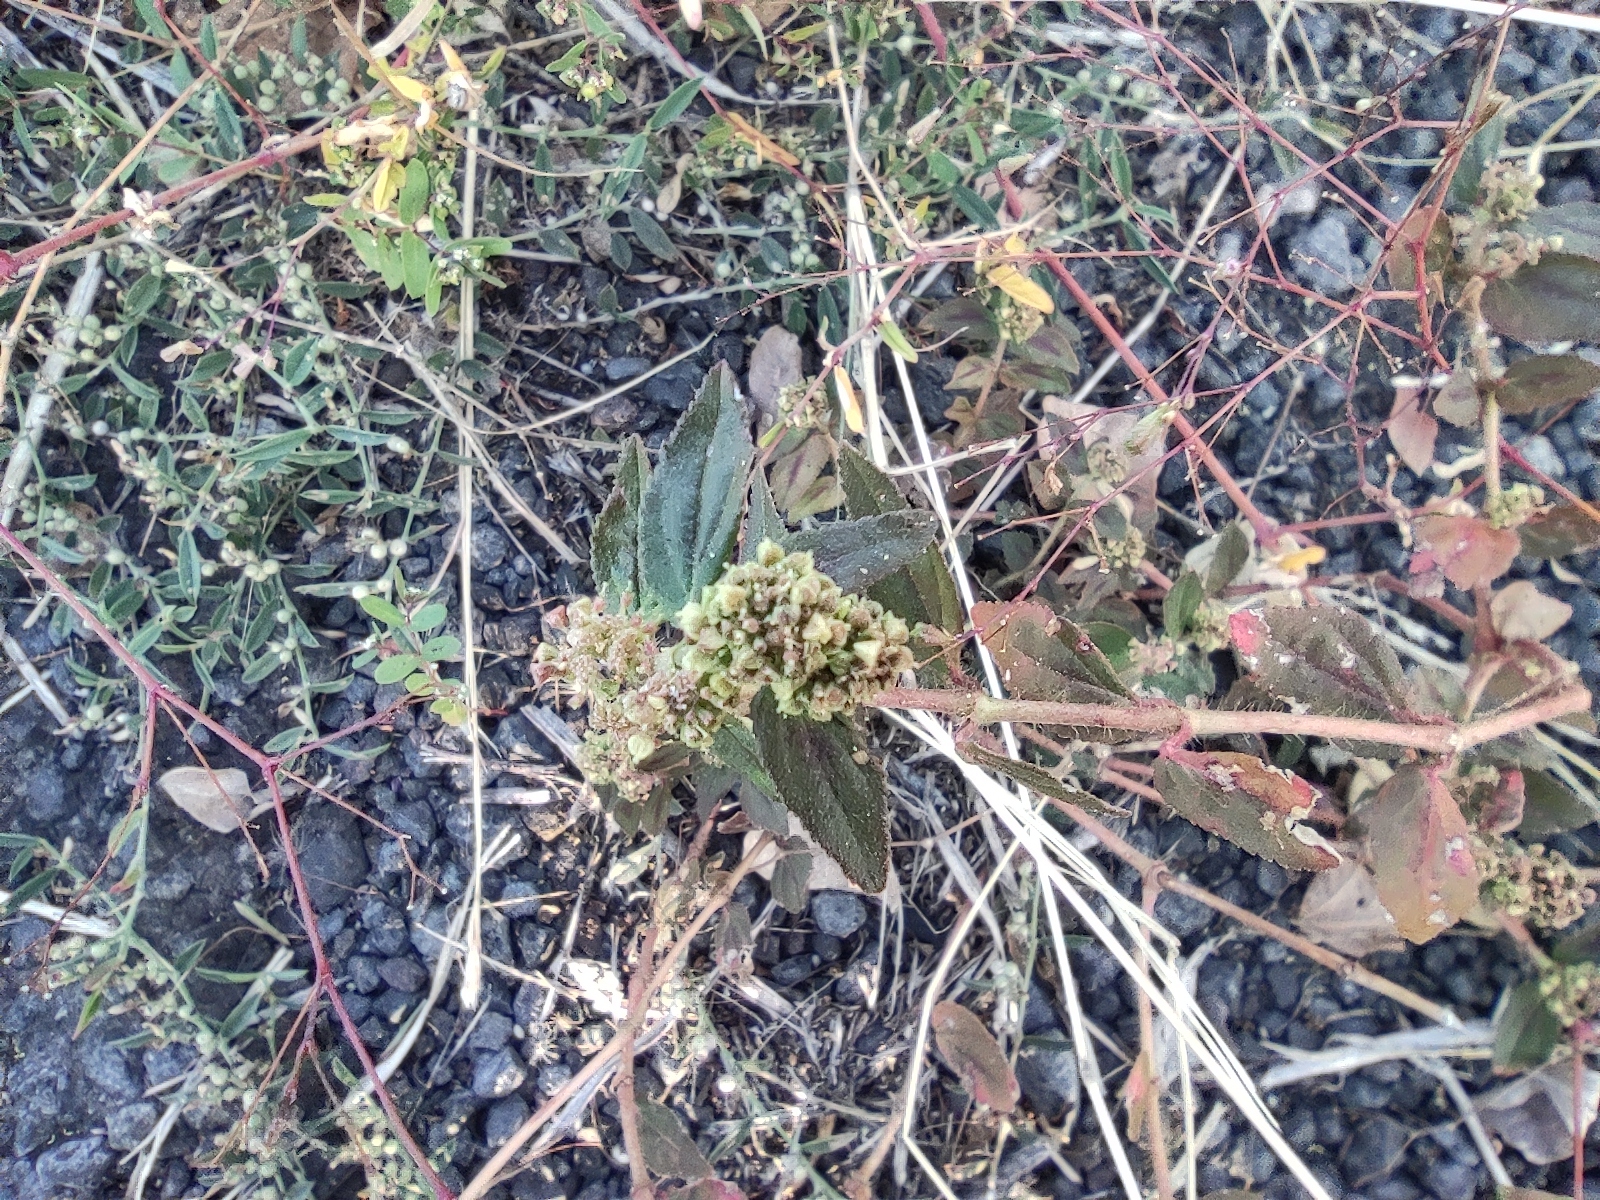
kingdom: Plantae
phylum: Tracheophyta
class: Magnoliopsida
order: Malpighiales
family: Euphorbiaceae
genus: Euphorbia
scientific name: Euphorbia hirta
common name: Pillpod sandmat
